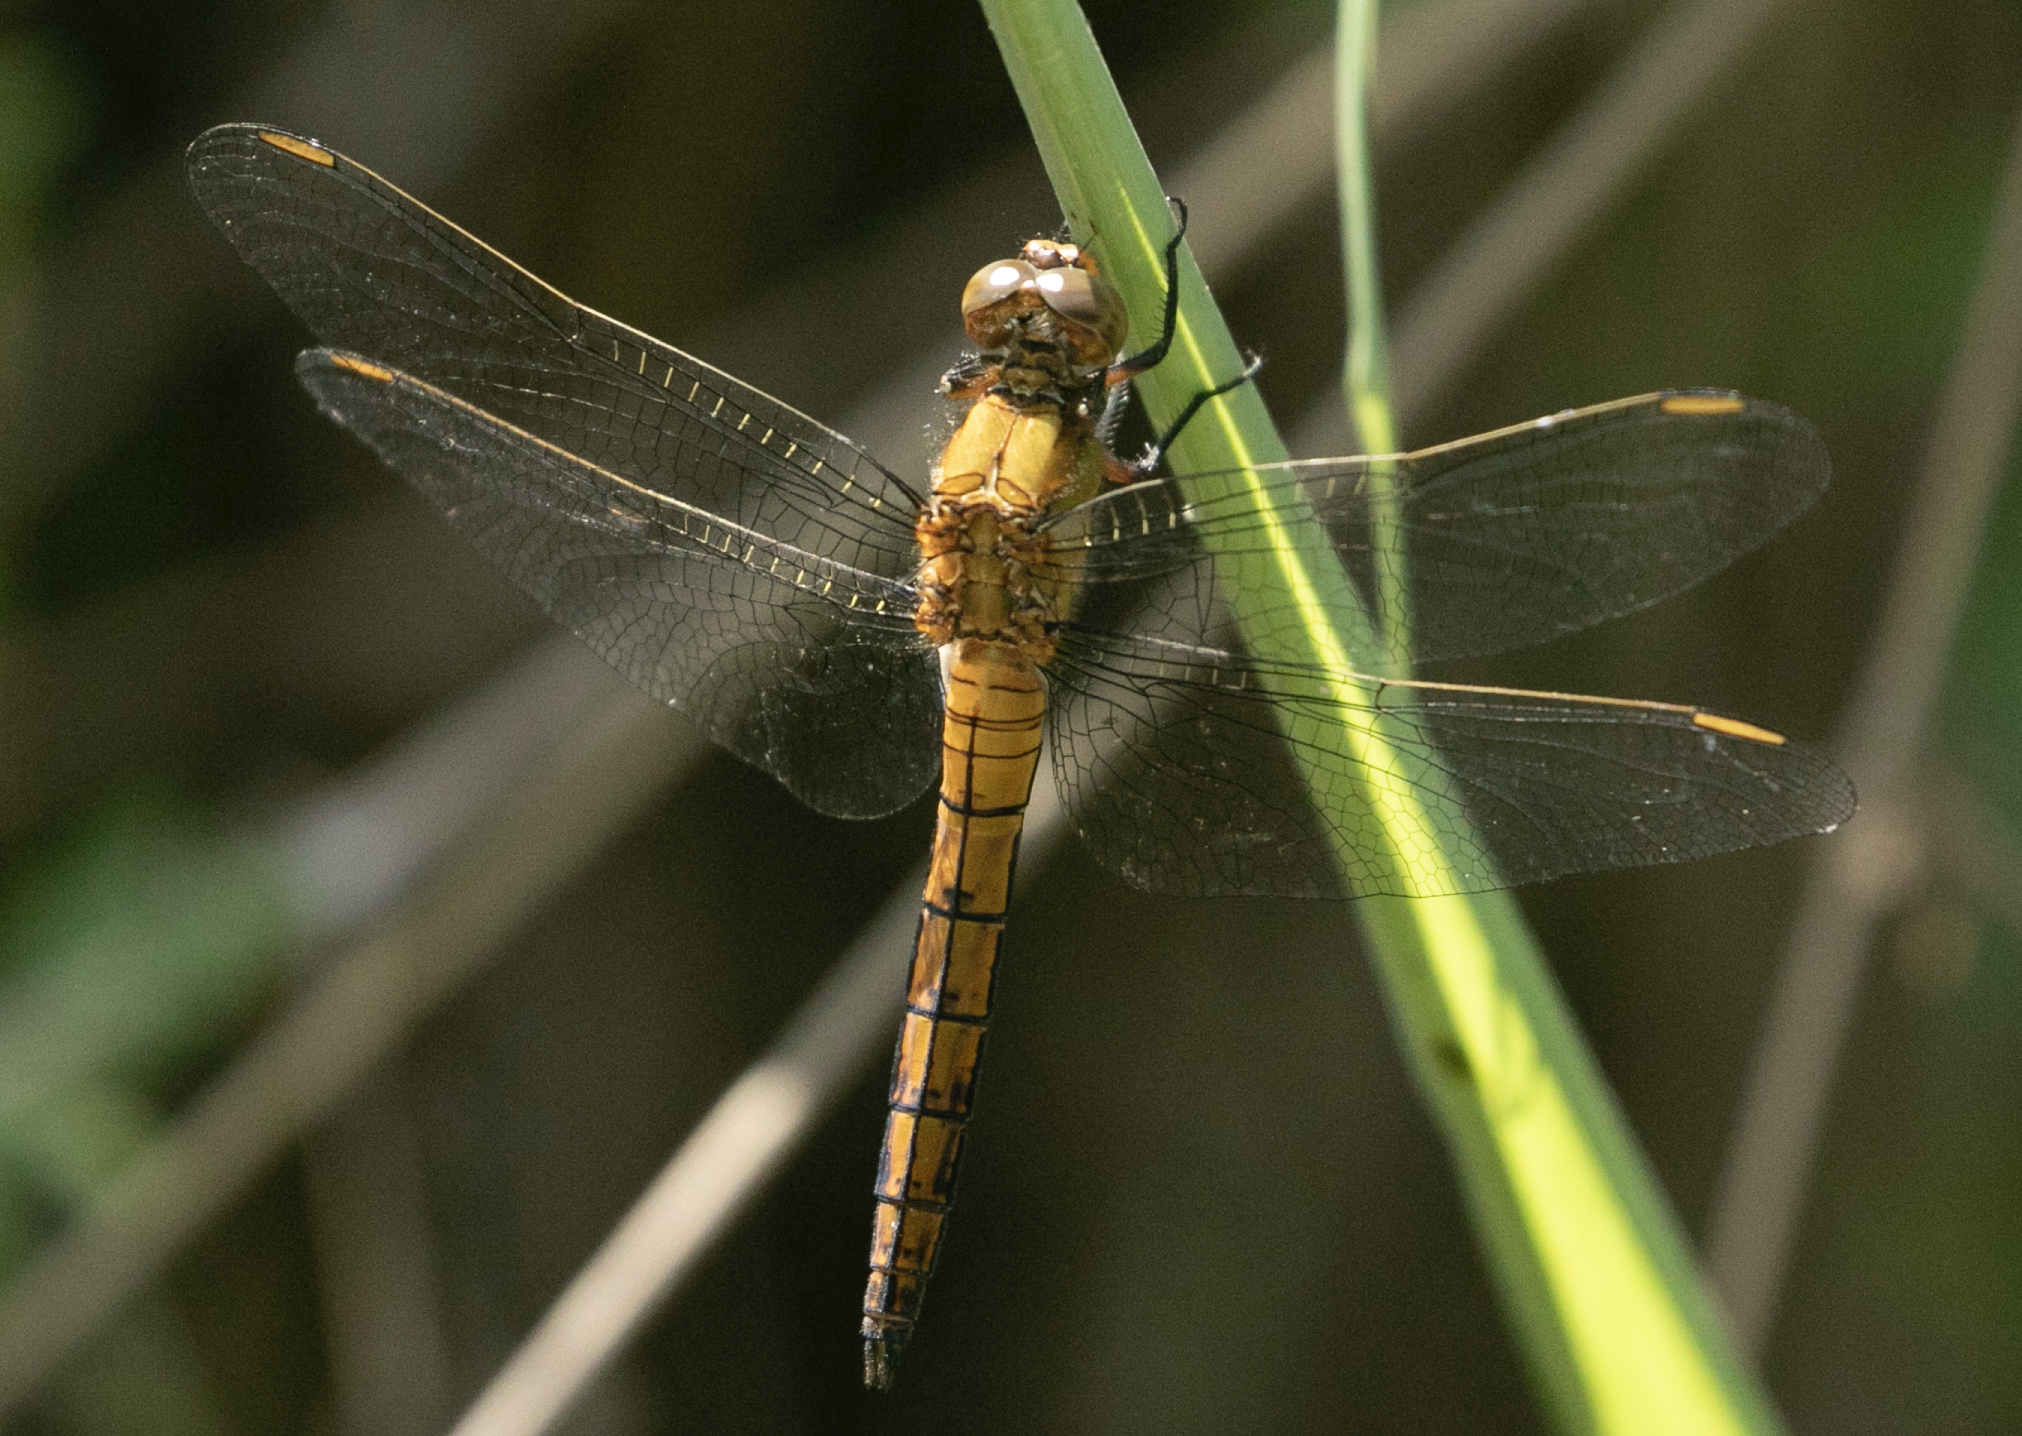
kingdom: Animalia
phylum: Arthropoda
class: Insecta
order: Odonata
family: Libellulidae
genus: Orthetrum
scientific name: Orthetrum coerulescens
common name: Keeled skimmer
